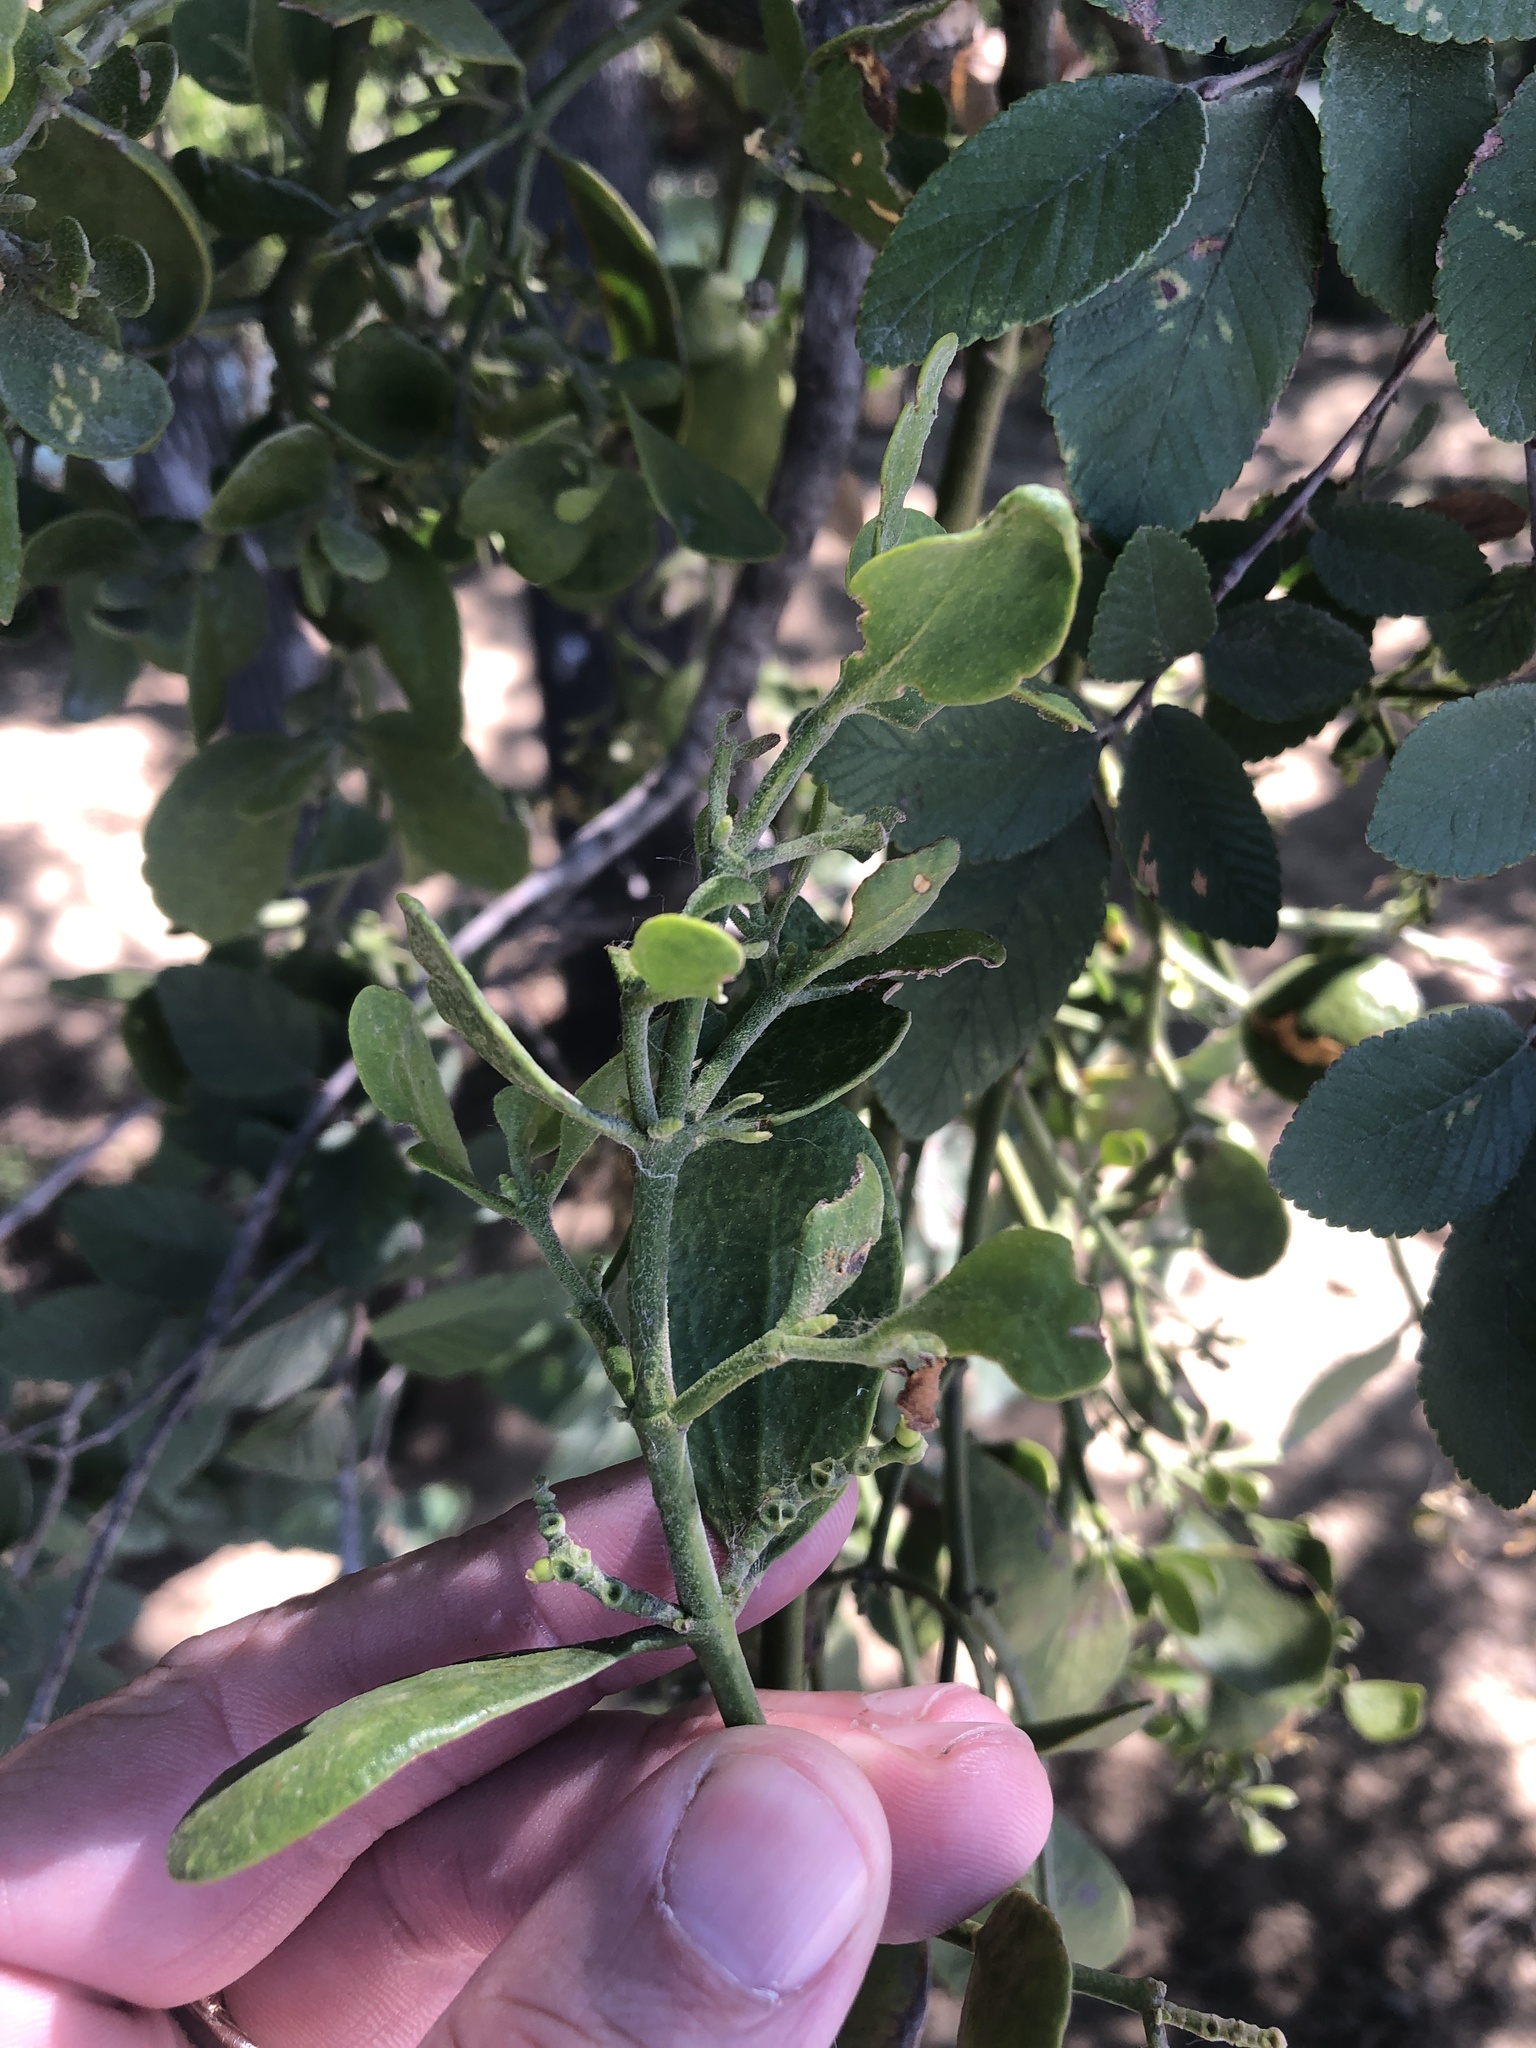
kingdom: Plantae
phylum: Tracheophyta
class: Magnoliopsida
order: Santalales
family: Viscaceae
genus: Phoradendron
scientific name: Phoradendron leucarpum
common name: Pacific mistletoe
